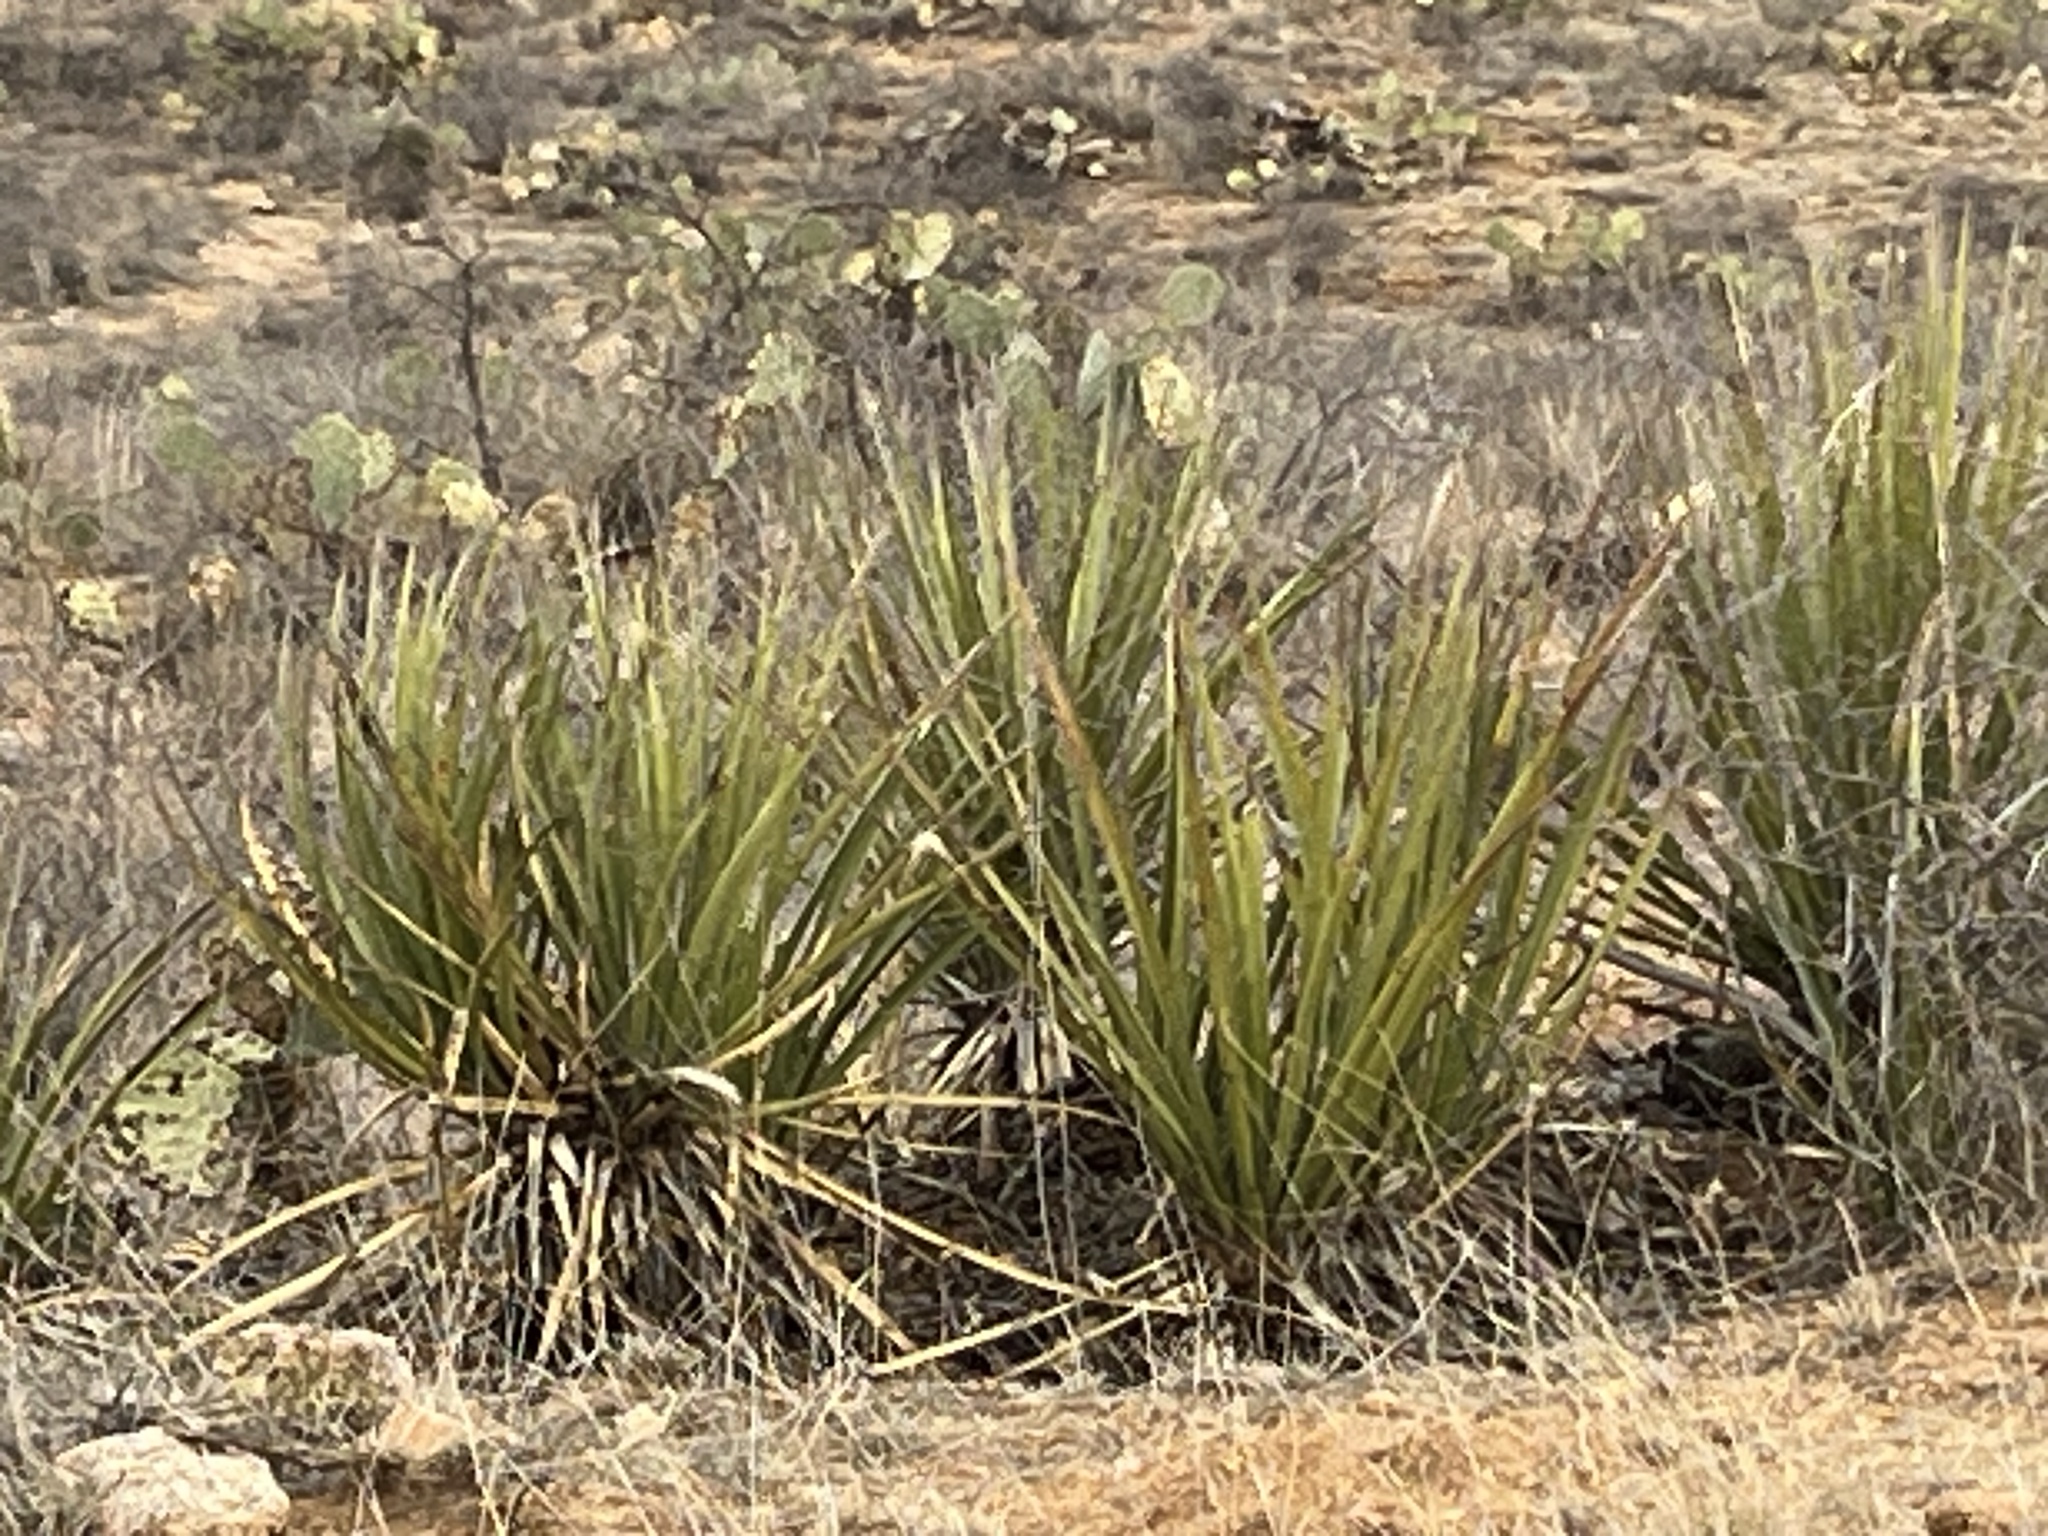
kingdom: Plantae
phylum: Tracheophyta
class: Liliopsida
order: Asparagales
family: Asparagaceae
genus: Yucca
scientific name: Yucca baccata
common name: Banana yucca
